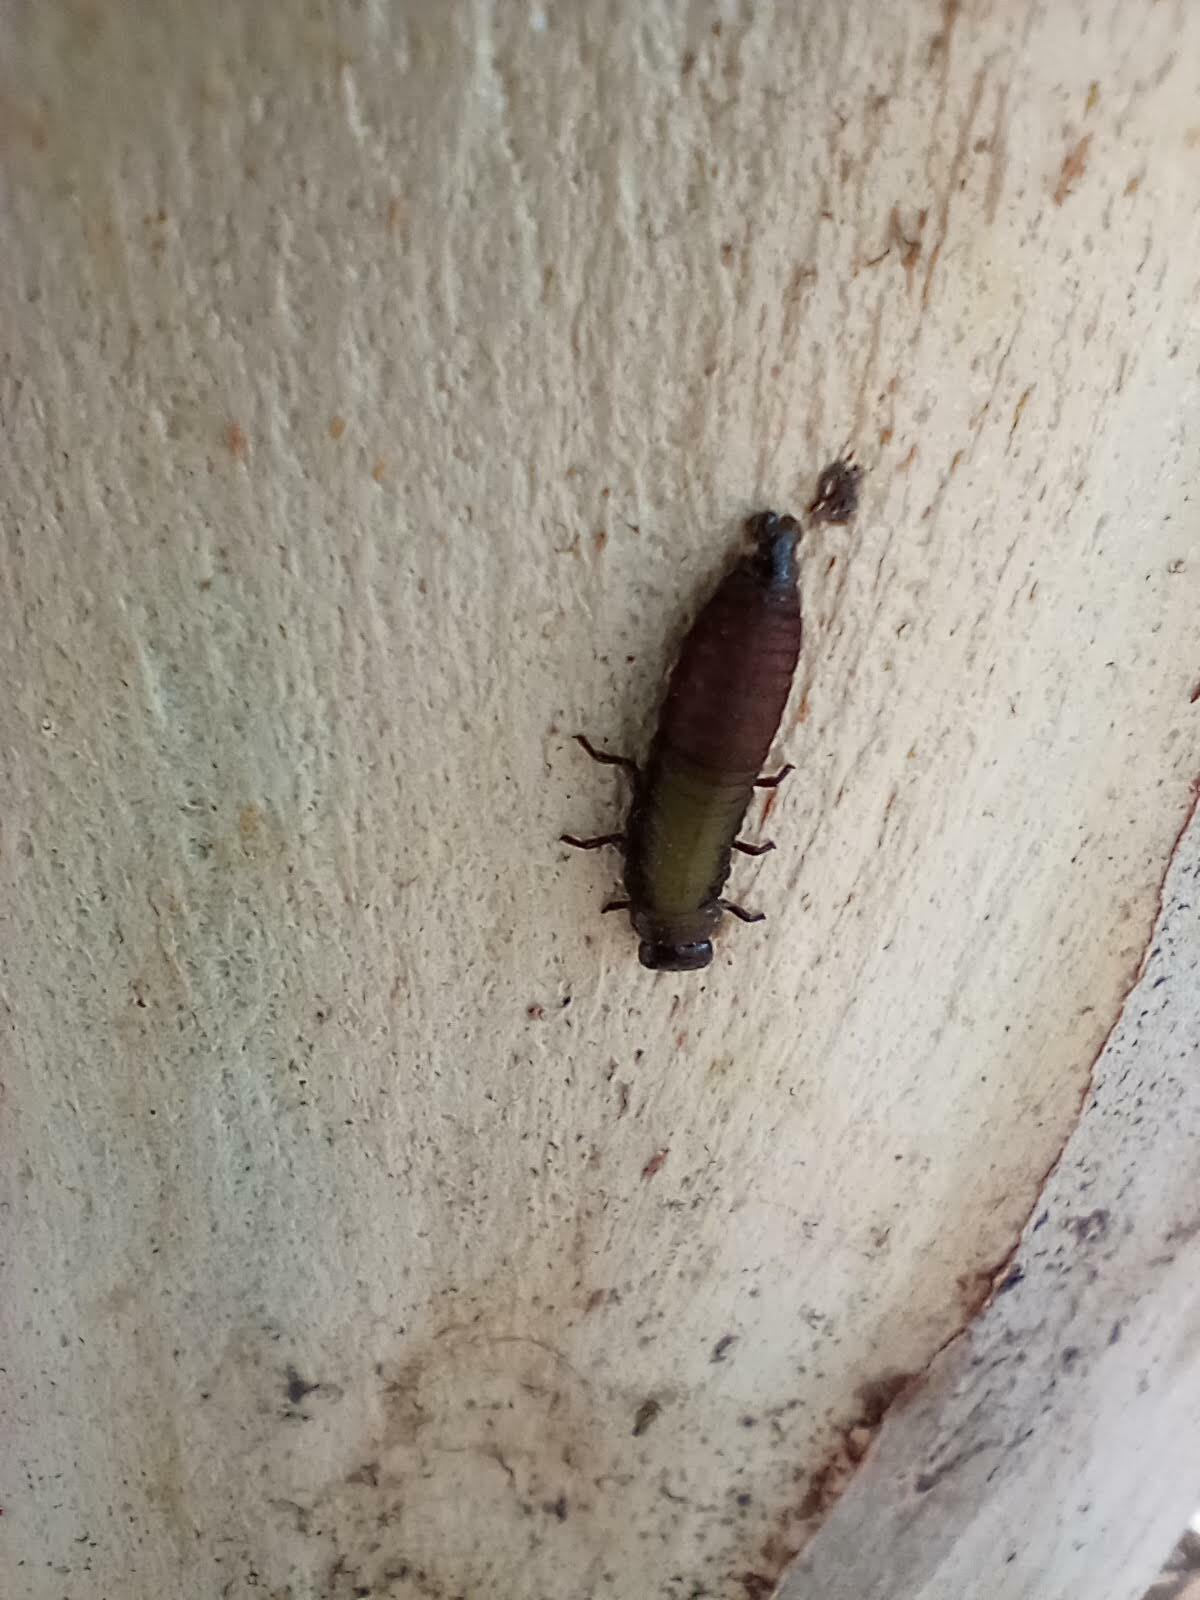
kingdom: Animalia
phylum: Arthropoda
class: Insecta
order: Coleoptera
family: Chrysomelidae
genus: Trachymela
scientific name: Trachymela sloanei
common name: Australian tortoise beetle
